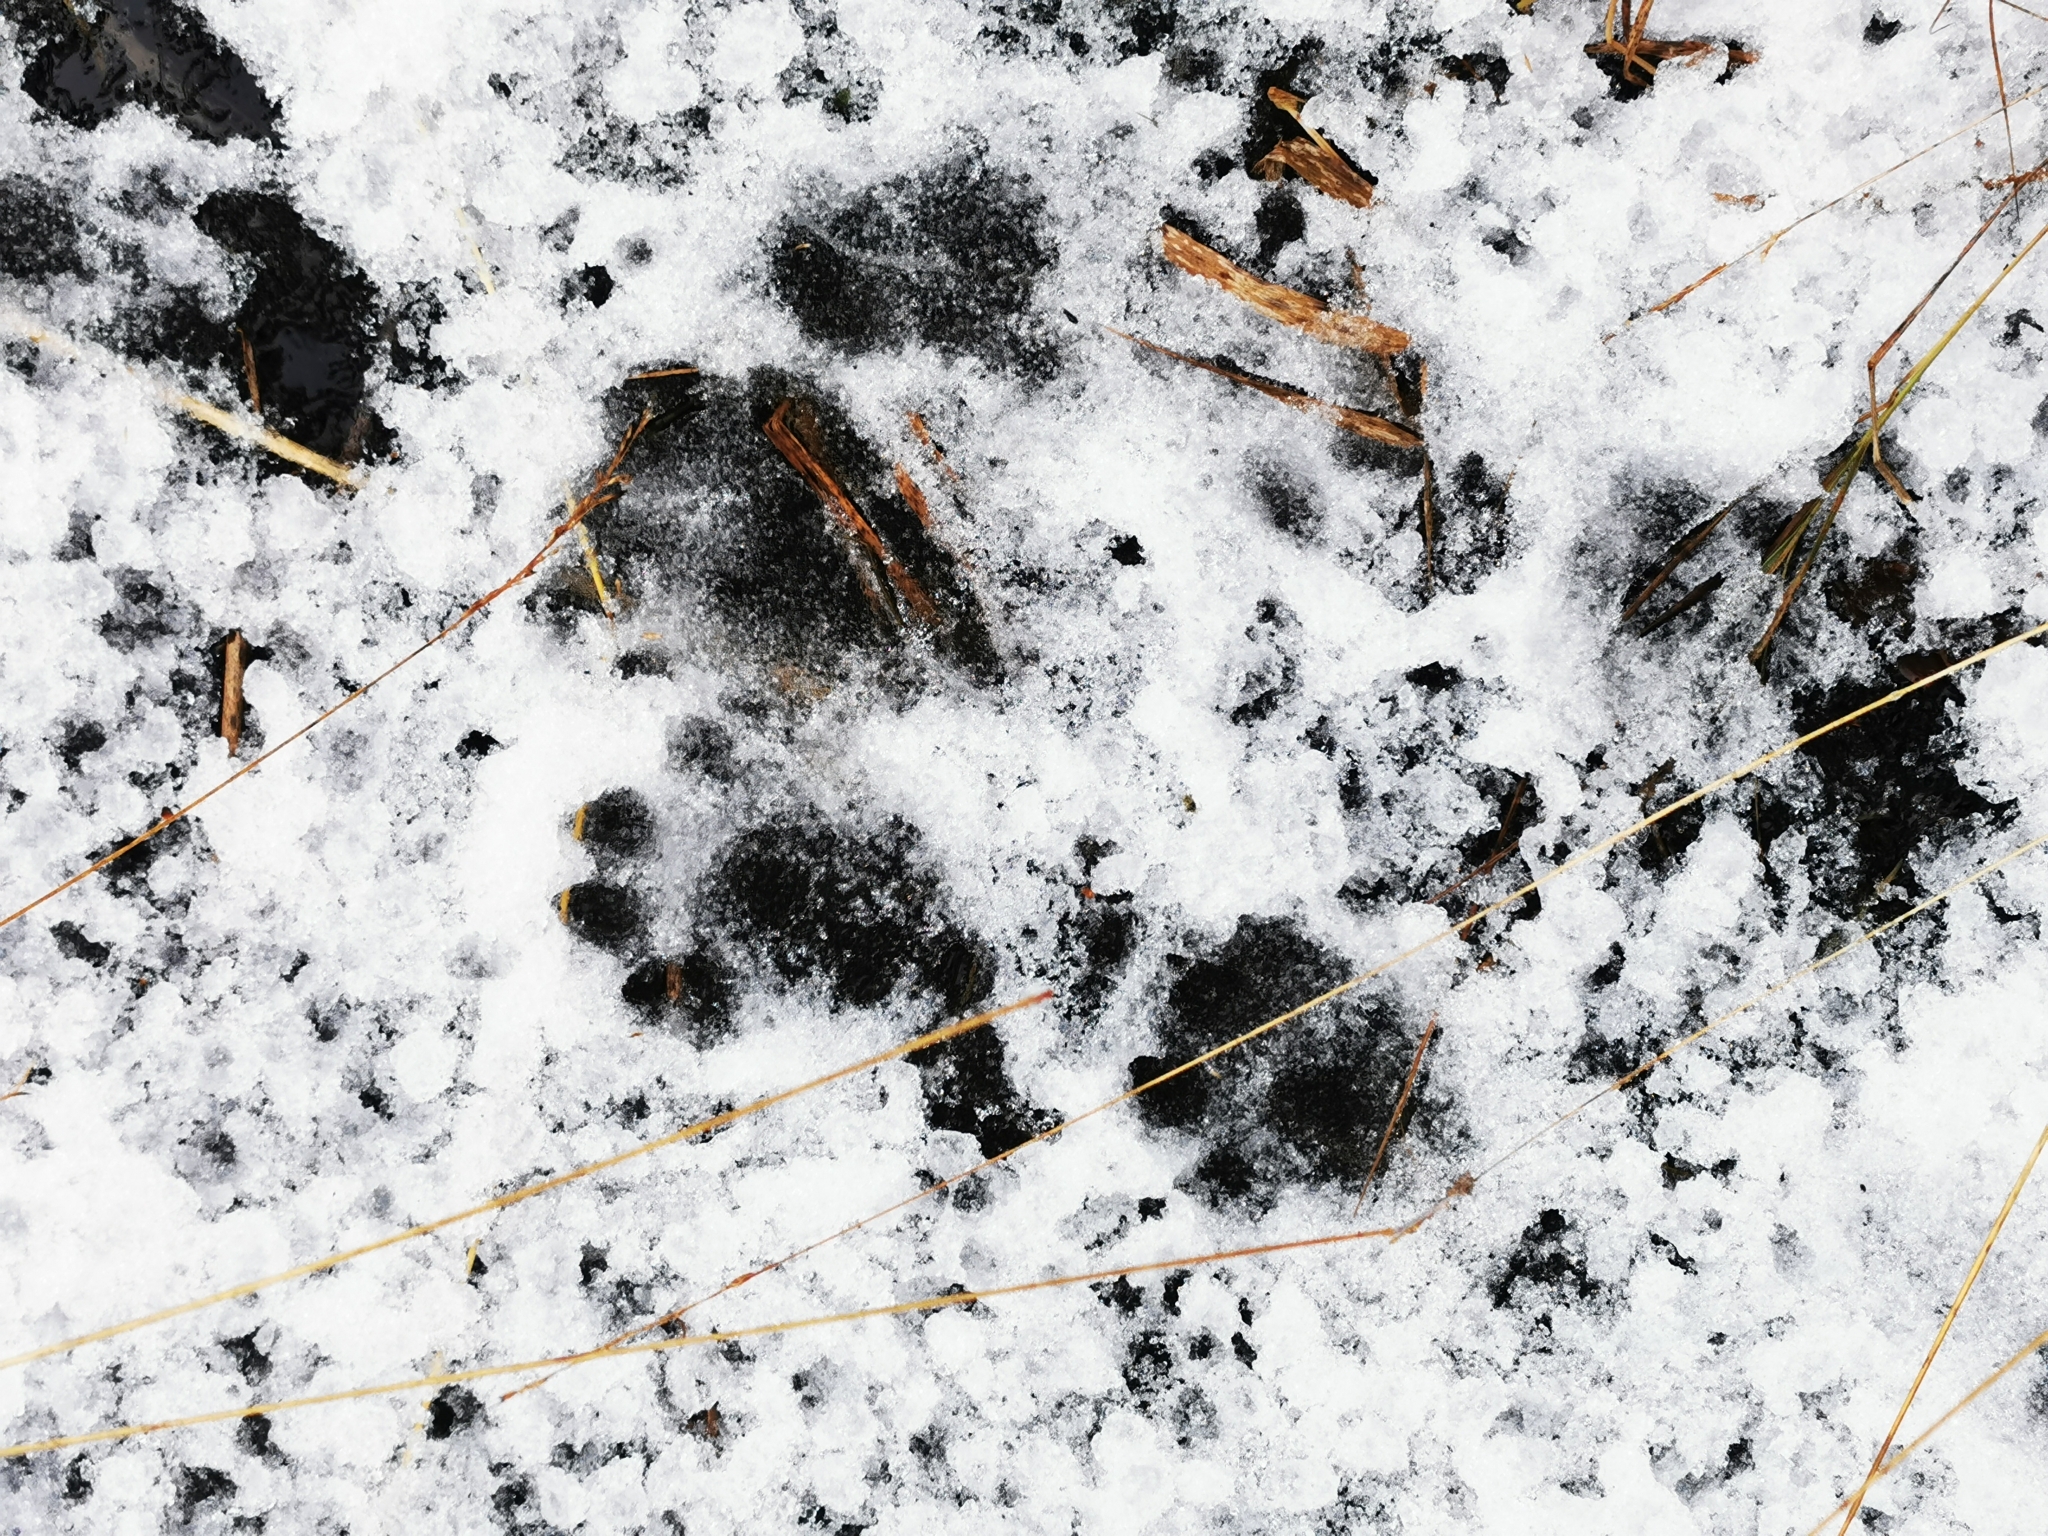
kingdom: Animalia
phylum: Chordata
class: Mammalia
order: Carnivora
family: Mustelidae
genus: Lutra
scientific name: Lutra lutra
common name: European otter
